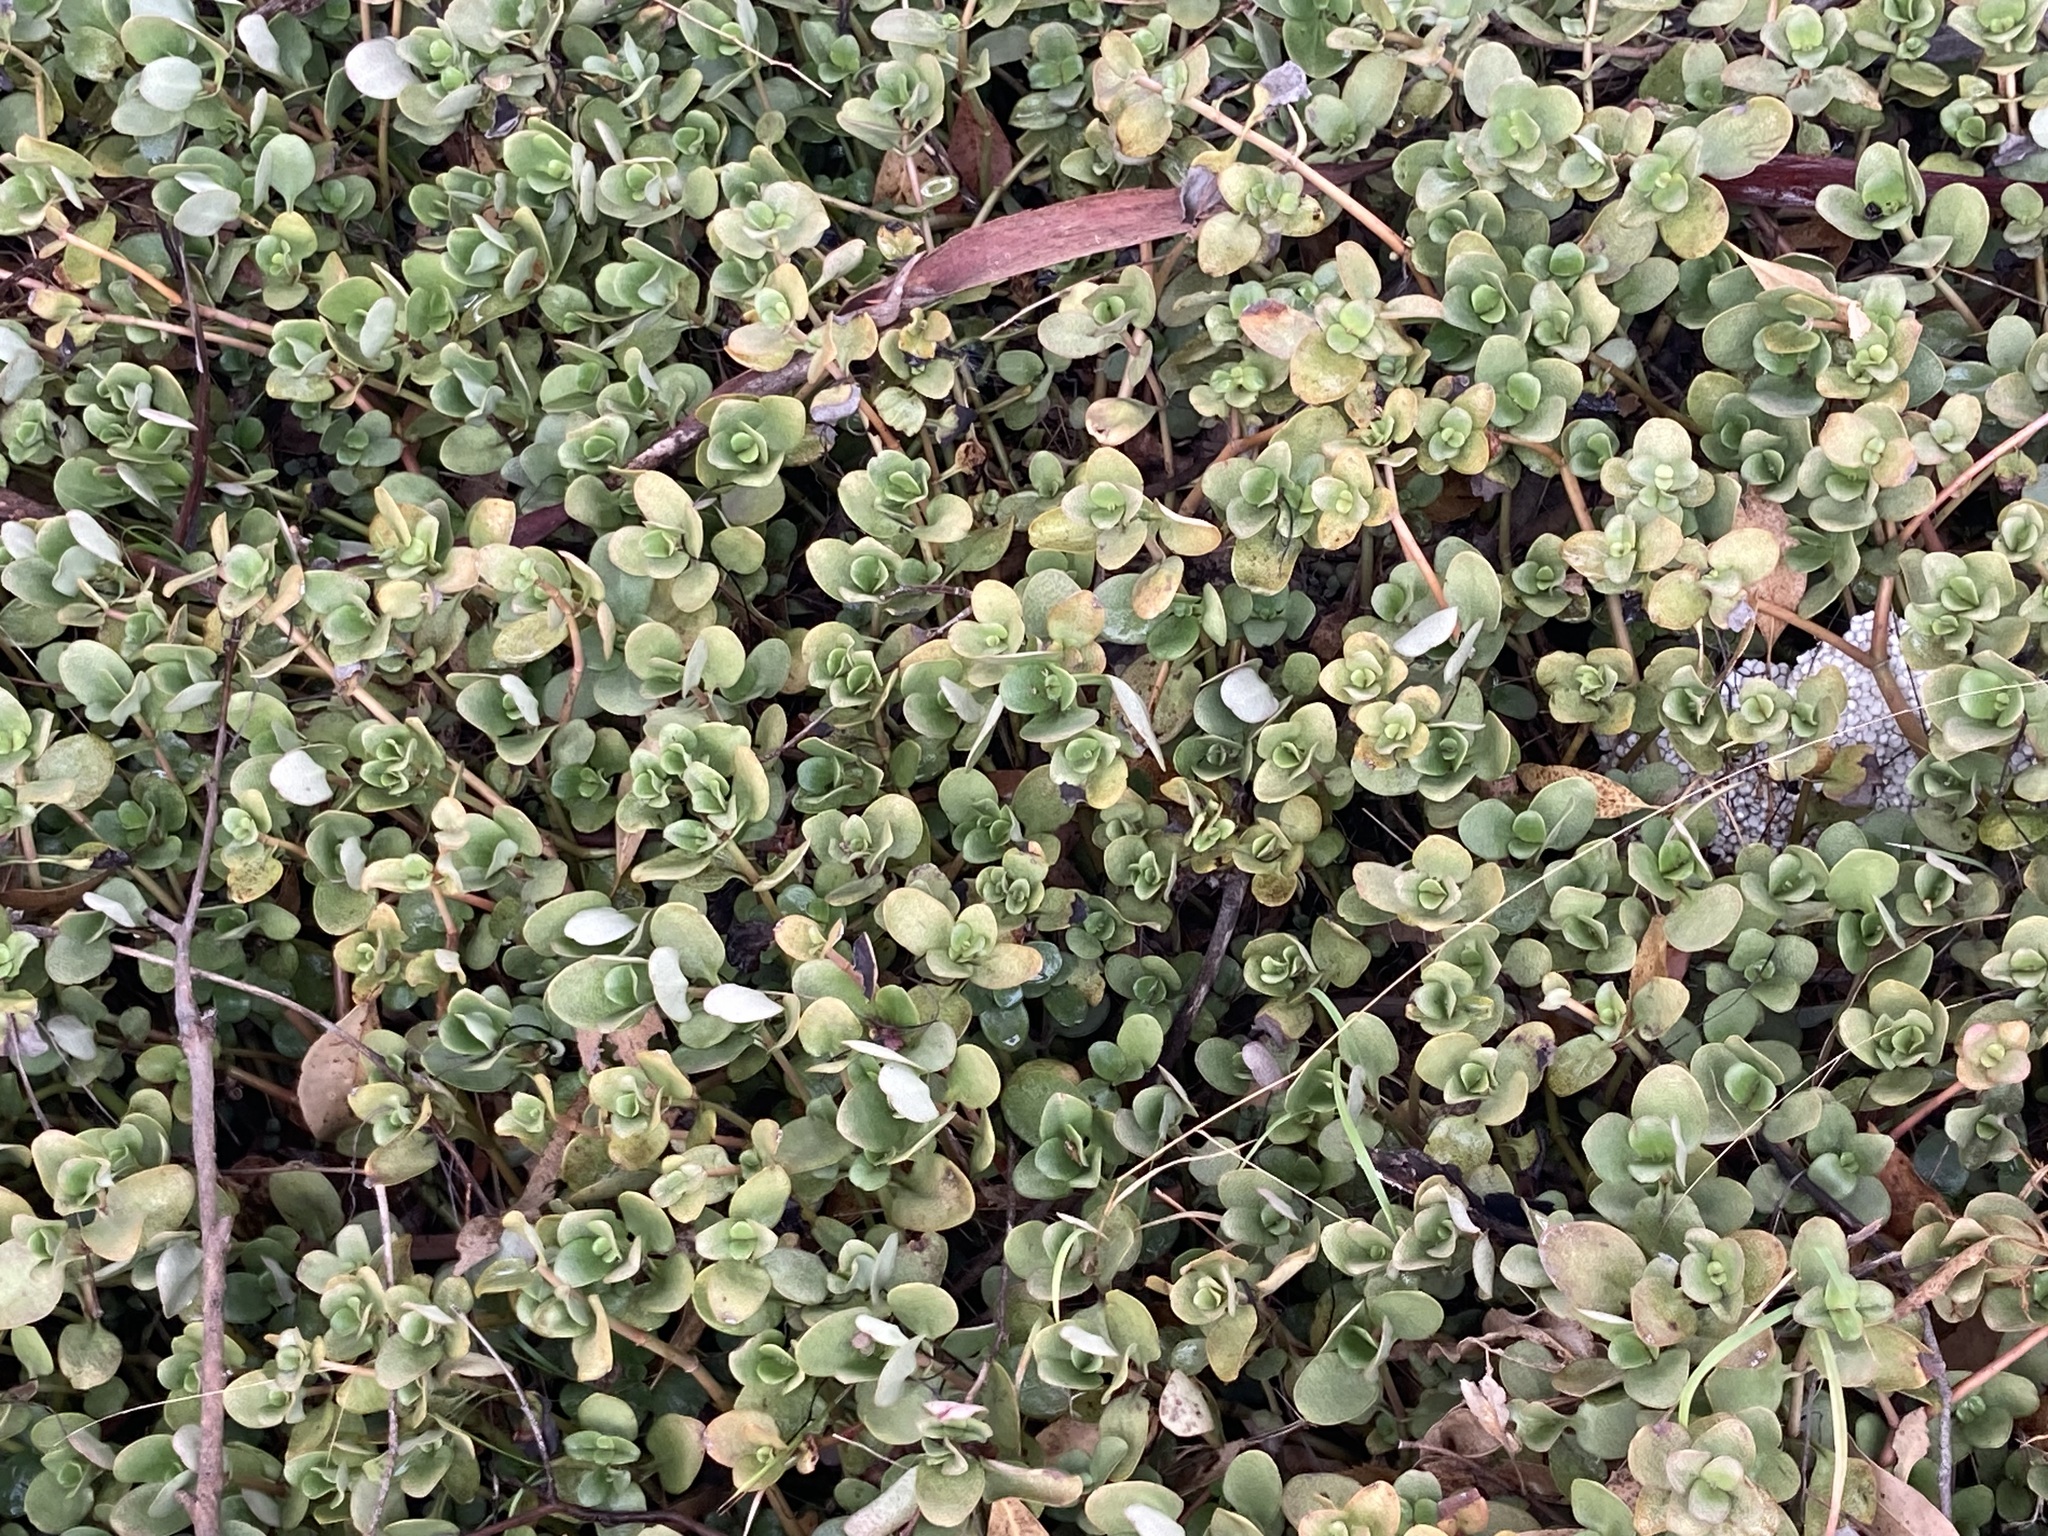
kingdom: Plantae
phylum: Tracheophyta
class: Magnoliopsida
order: Saxifragales
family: Crassulaceae
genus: Crassula
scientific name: Crassula multicava
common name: Cape province pygmyweed
